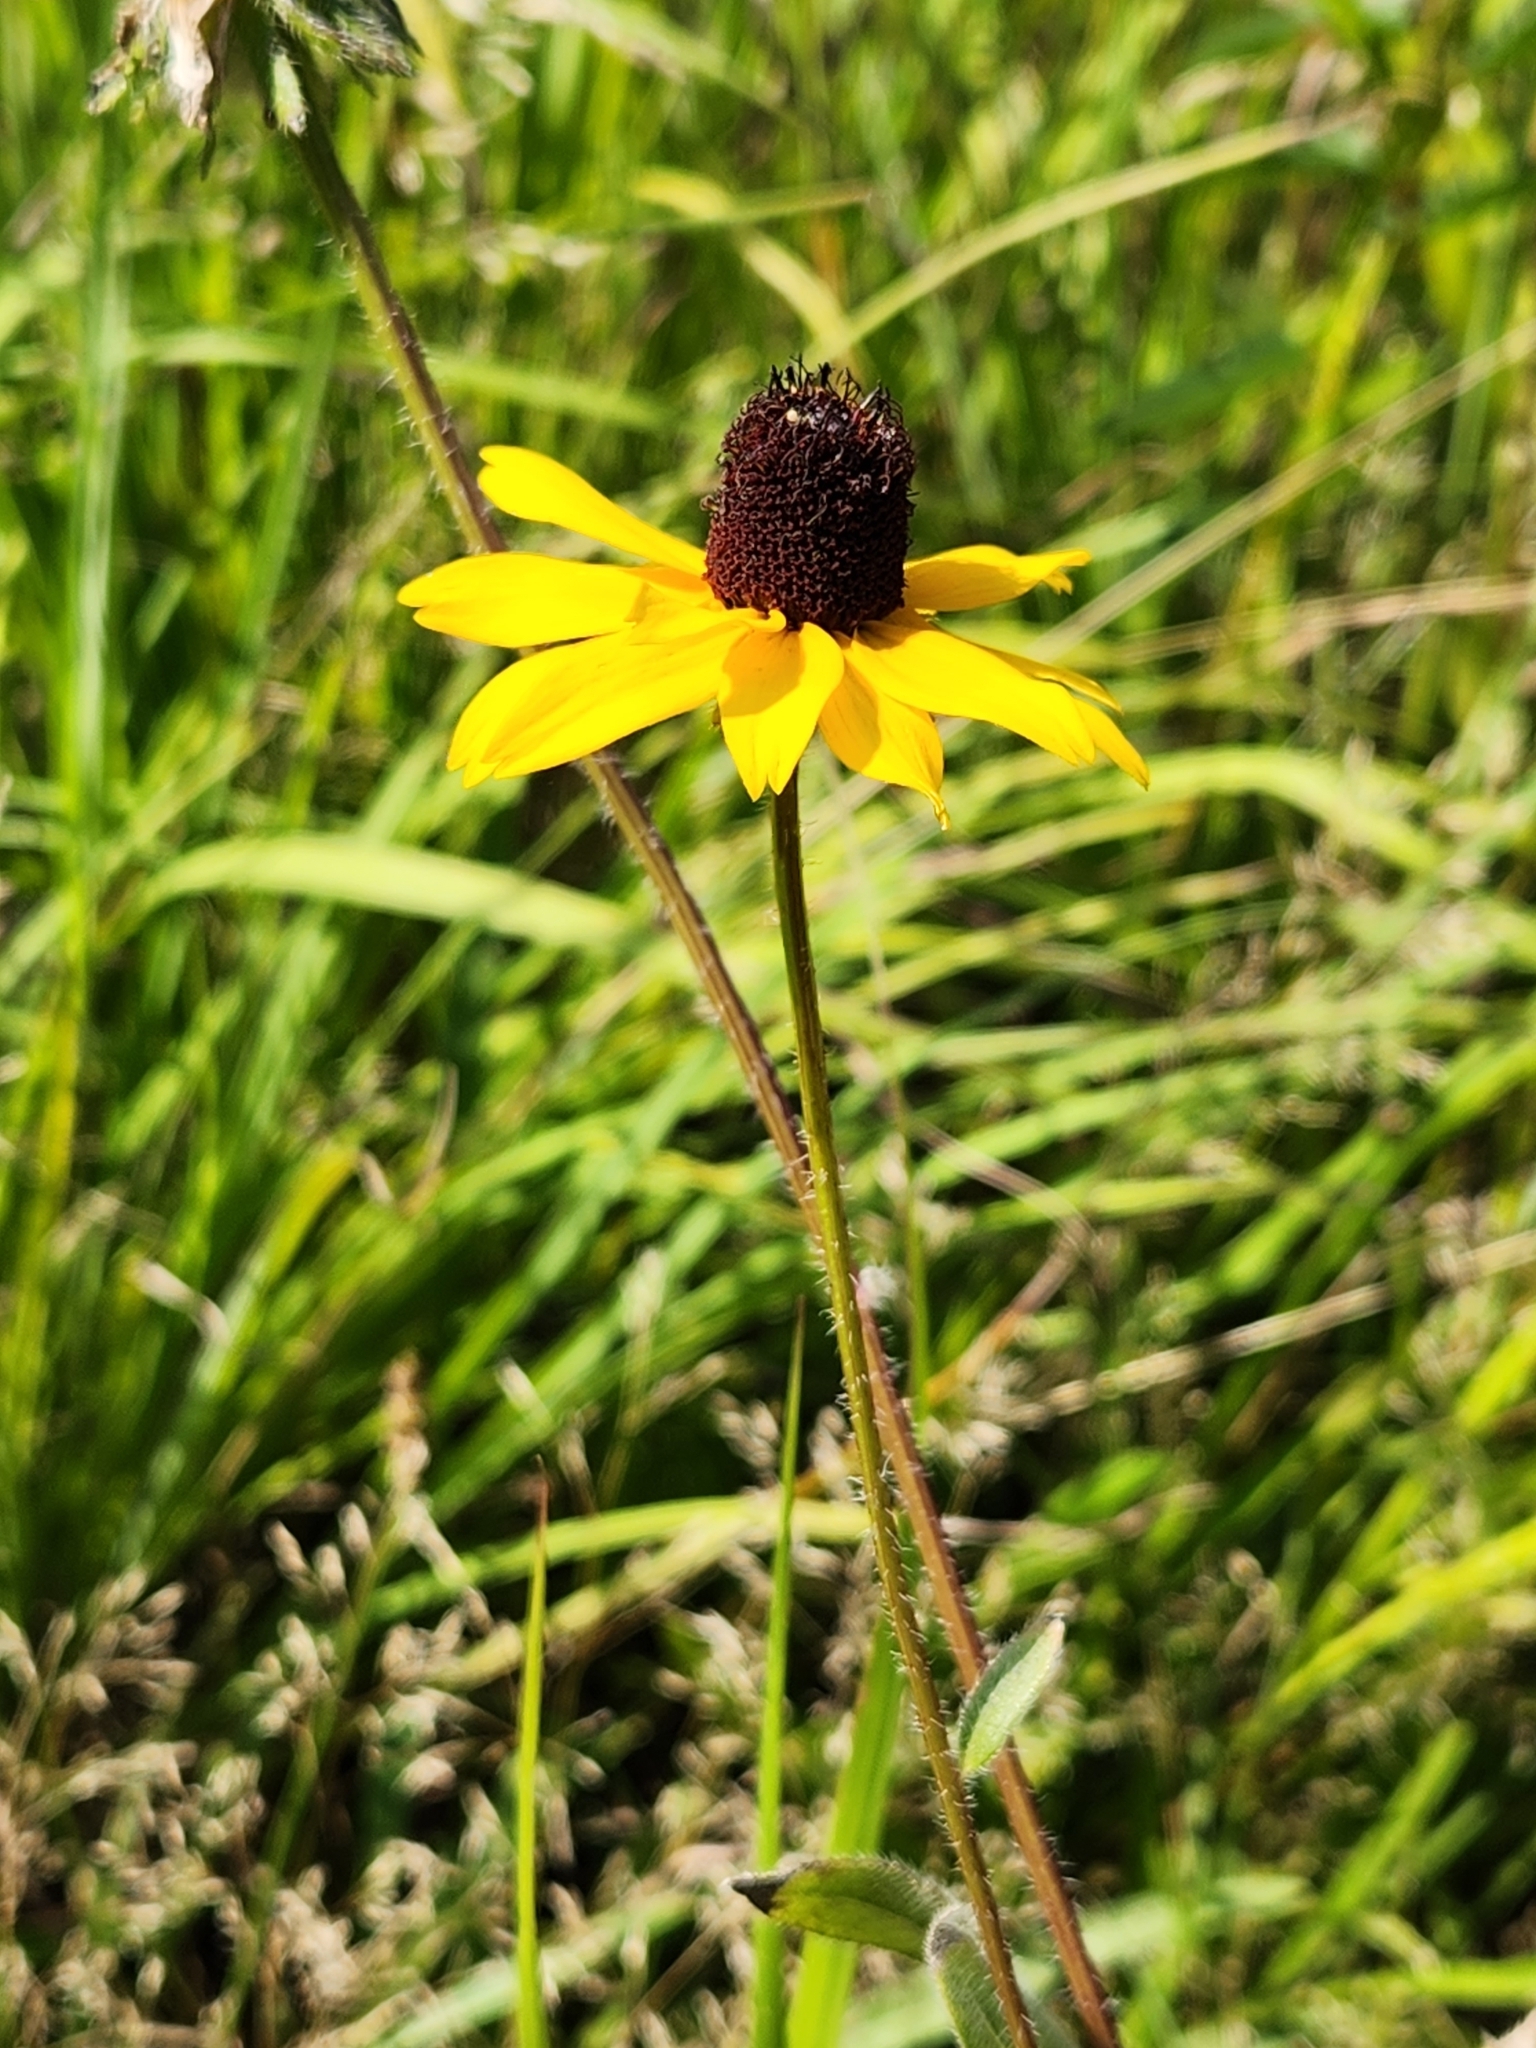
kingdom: Plantae
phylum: Tracheophyta
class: Magnoliopsida
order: Asterales
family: Asteraceae
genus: Rudbeckia
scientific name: Rudbeckia hirta
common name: Black-eyed-susan
